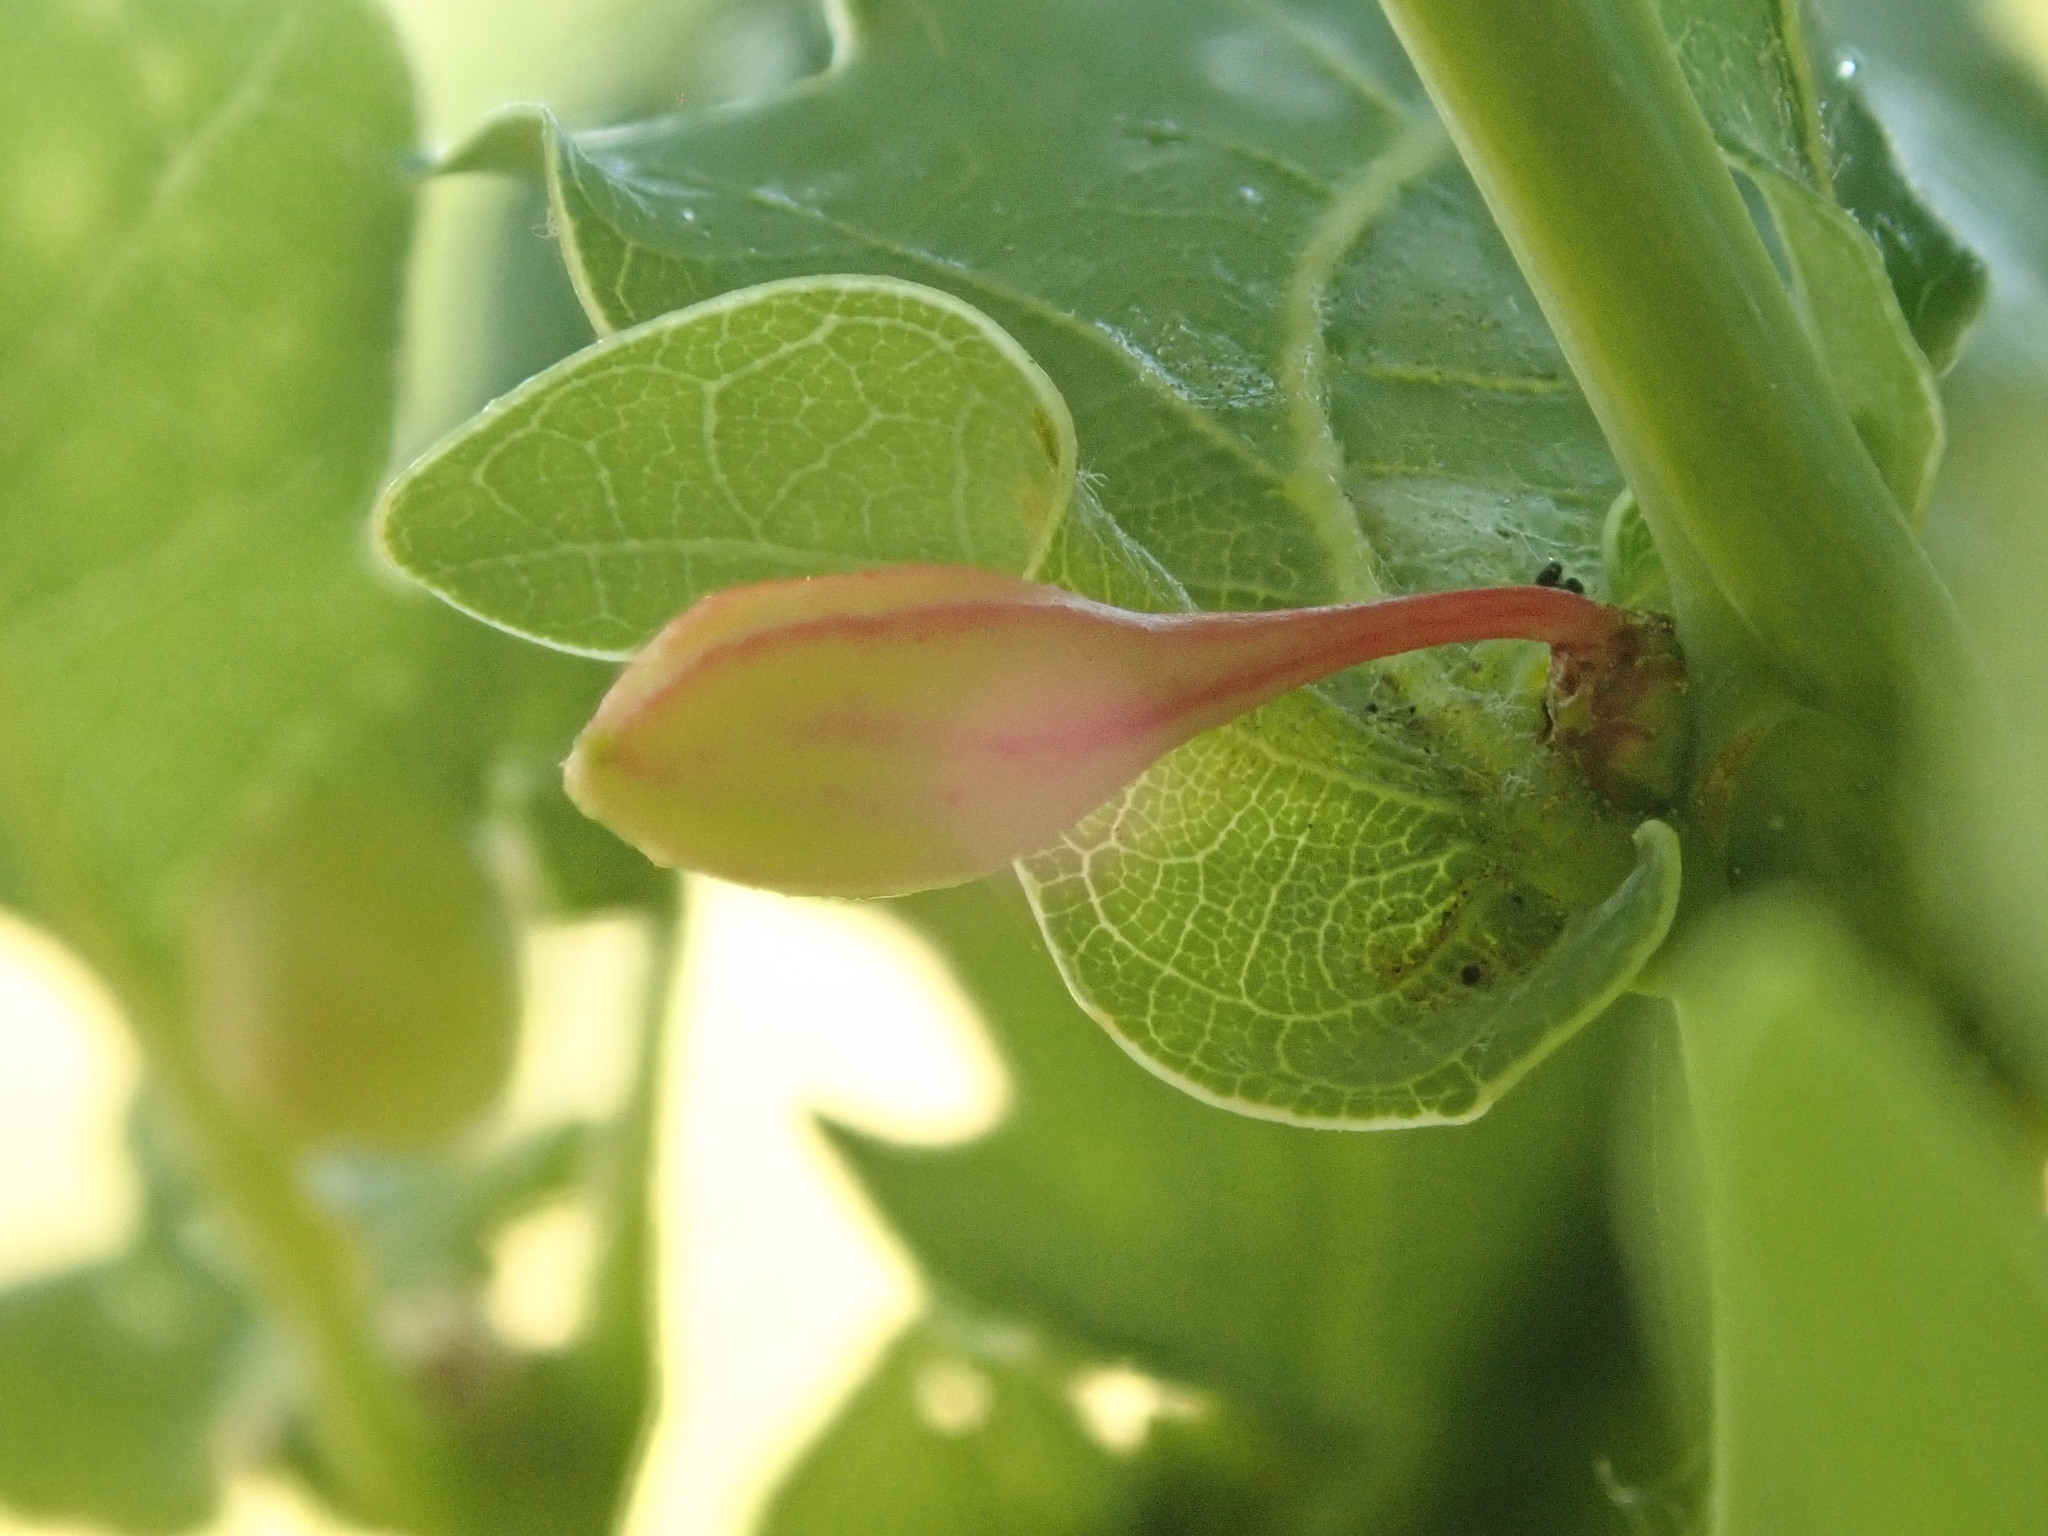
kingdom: Animalia
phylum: Arthropoda
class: Insecta
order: Hymenoptera
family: Cynipidae
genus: Andricus
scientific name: Andricus callidoma
